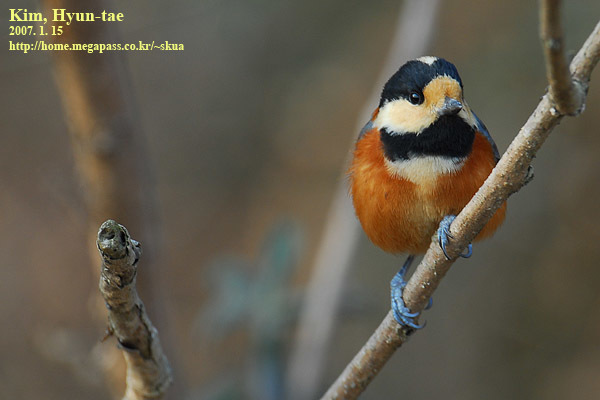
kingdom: Animalia
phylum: Chordata
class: Aves
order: Passeriformes
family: Paridae
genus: Poecile
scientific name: Poecile varius
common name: Varied tit
